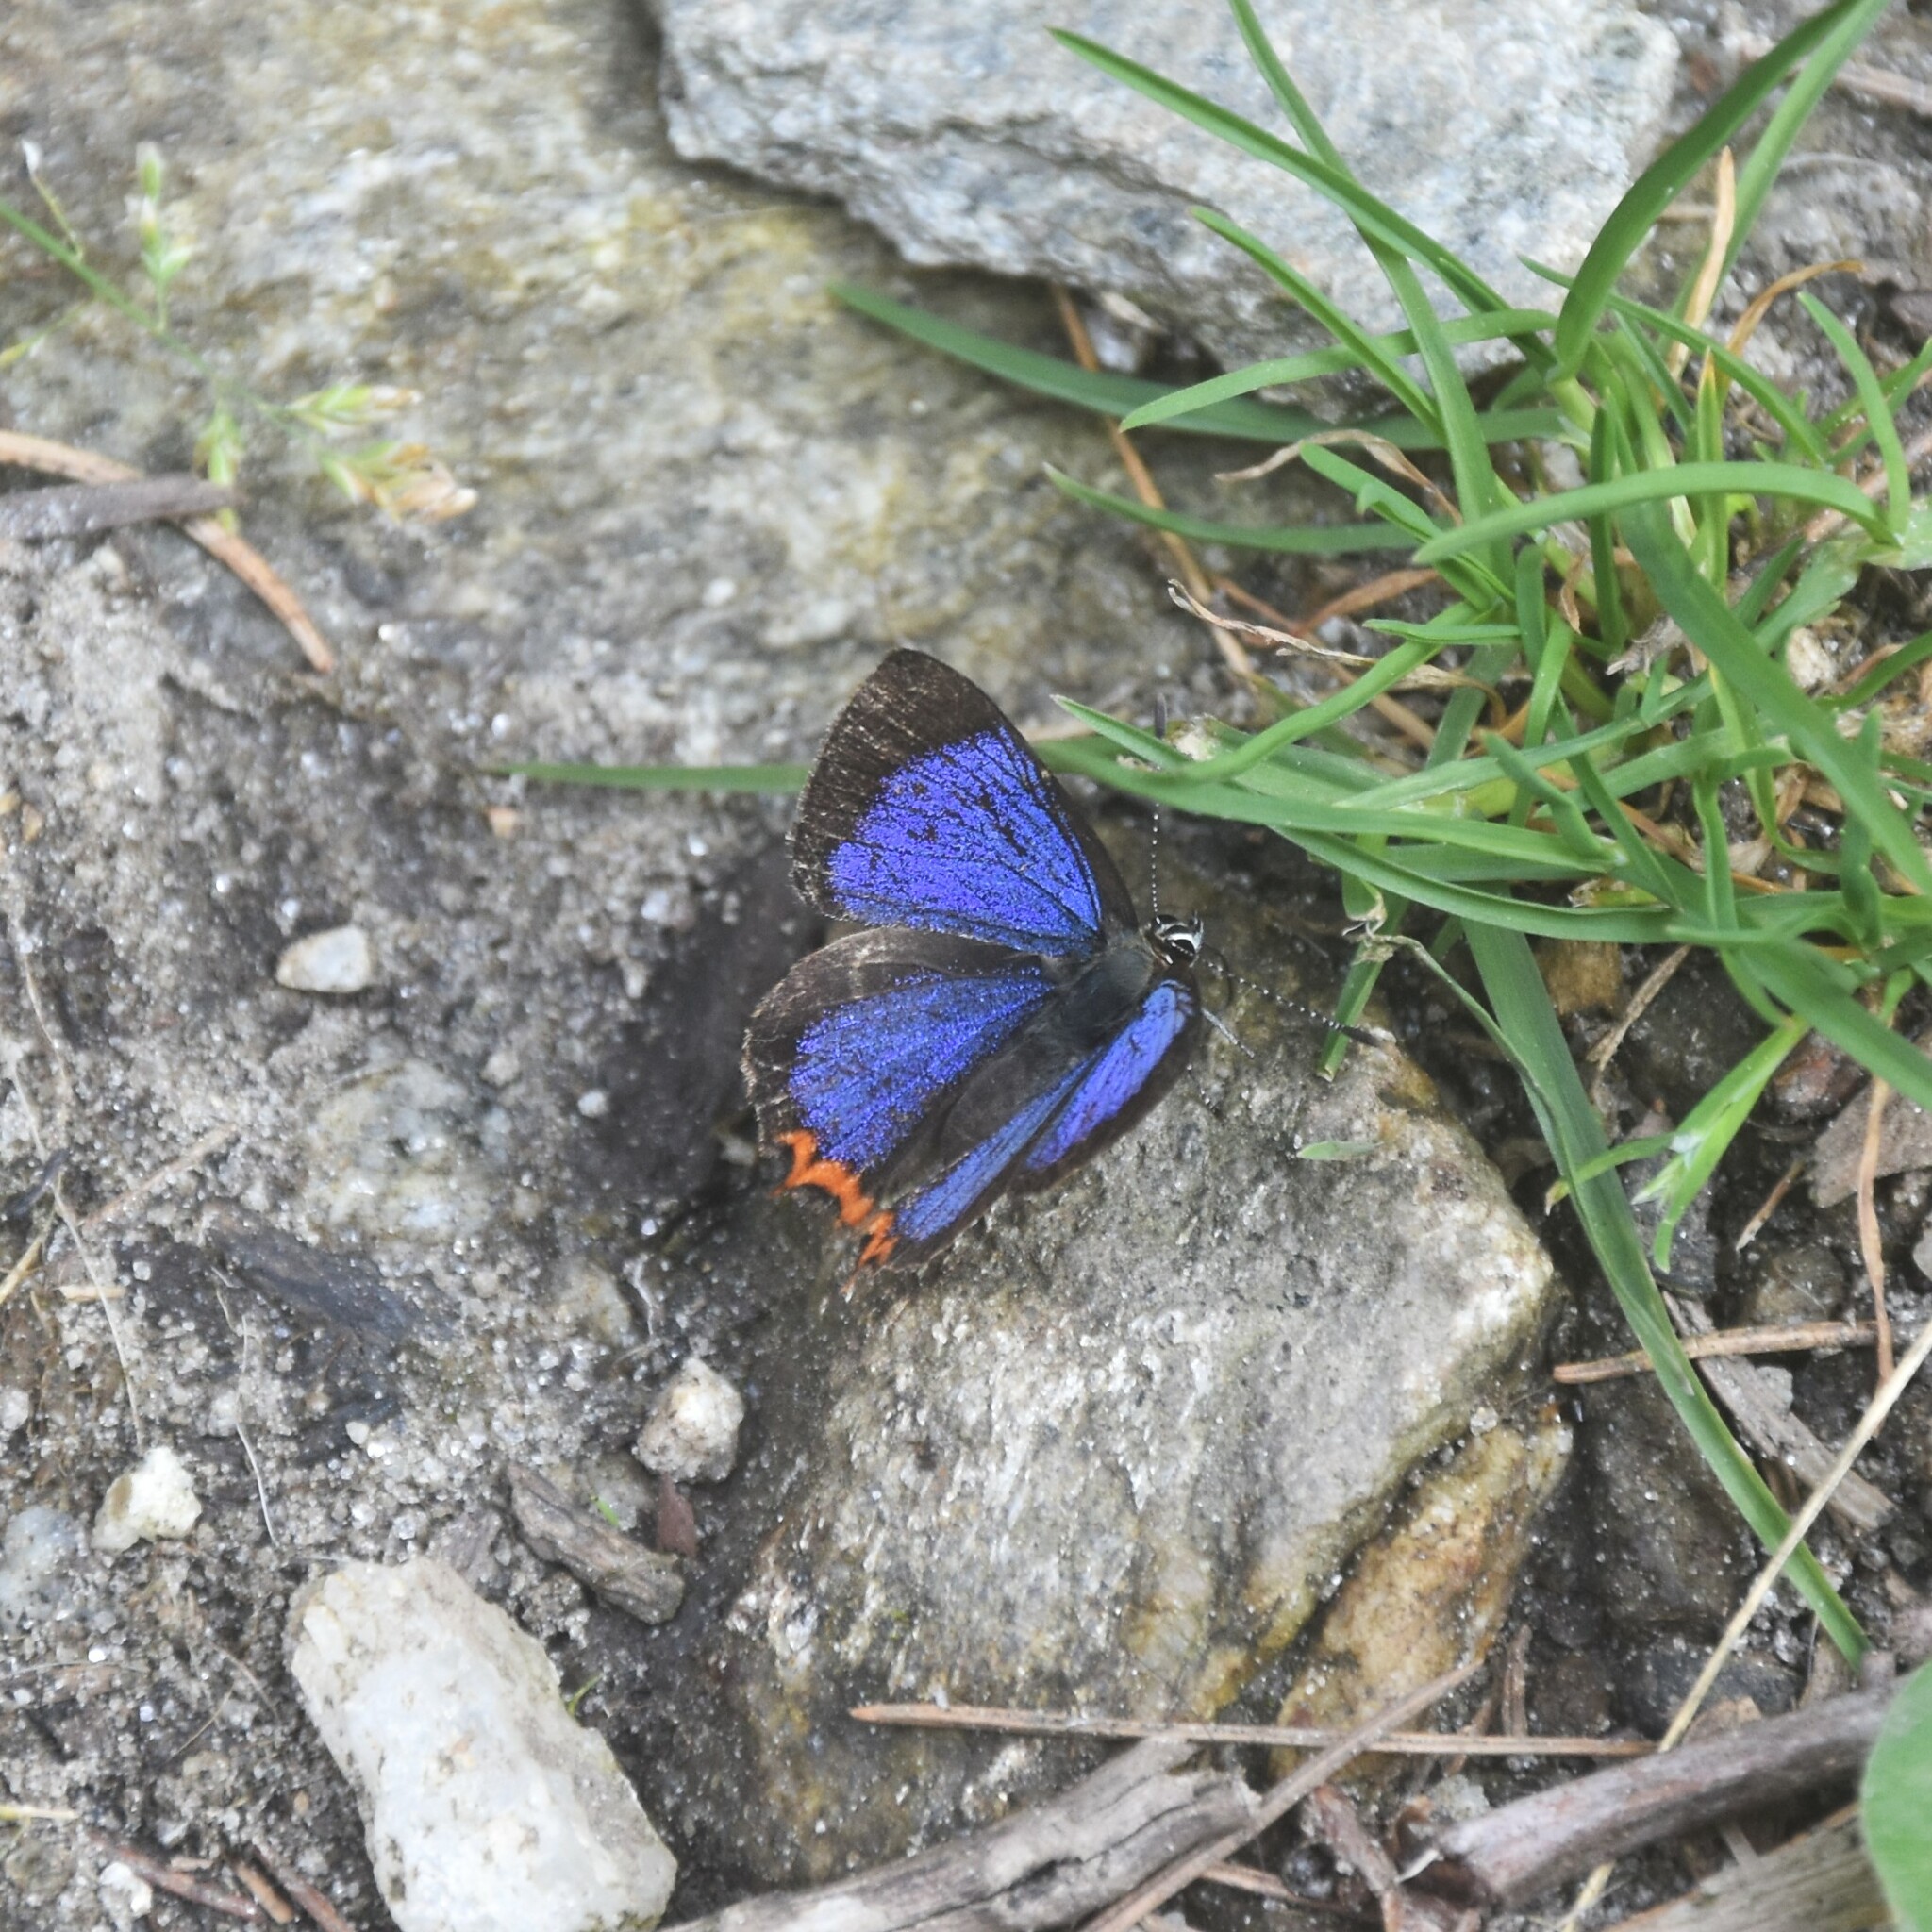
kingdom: Animalia
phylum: Arthropoda
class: Insecta
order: Lepidoptera
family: Lycaenidae
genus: Heliophorus
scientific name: Heliophorus oda
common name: Eastern blue sapphire
